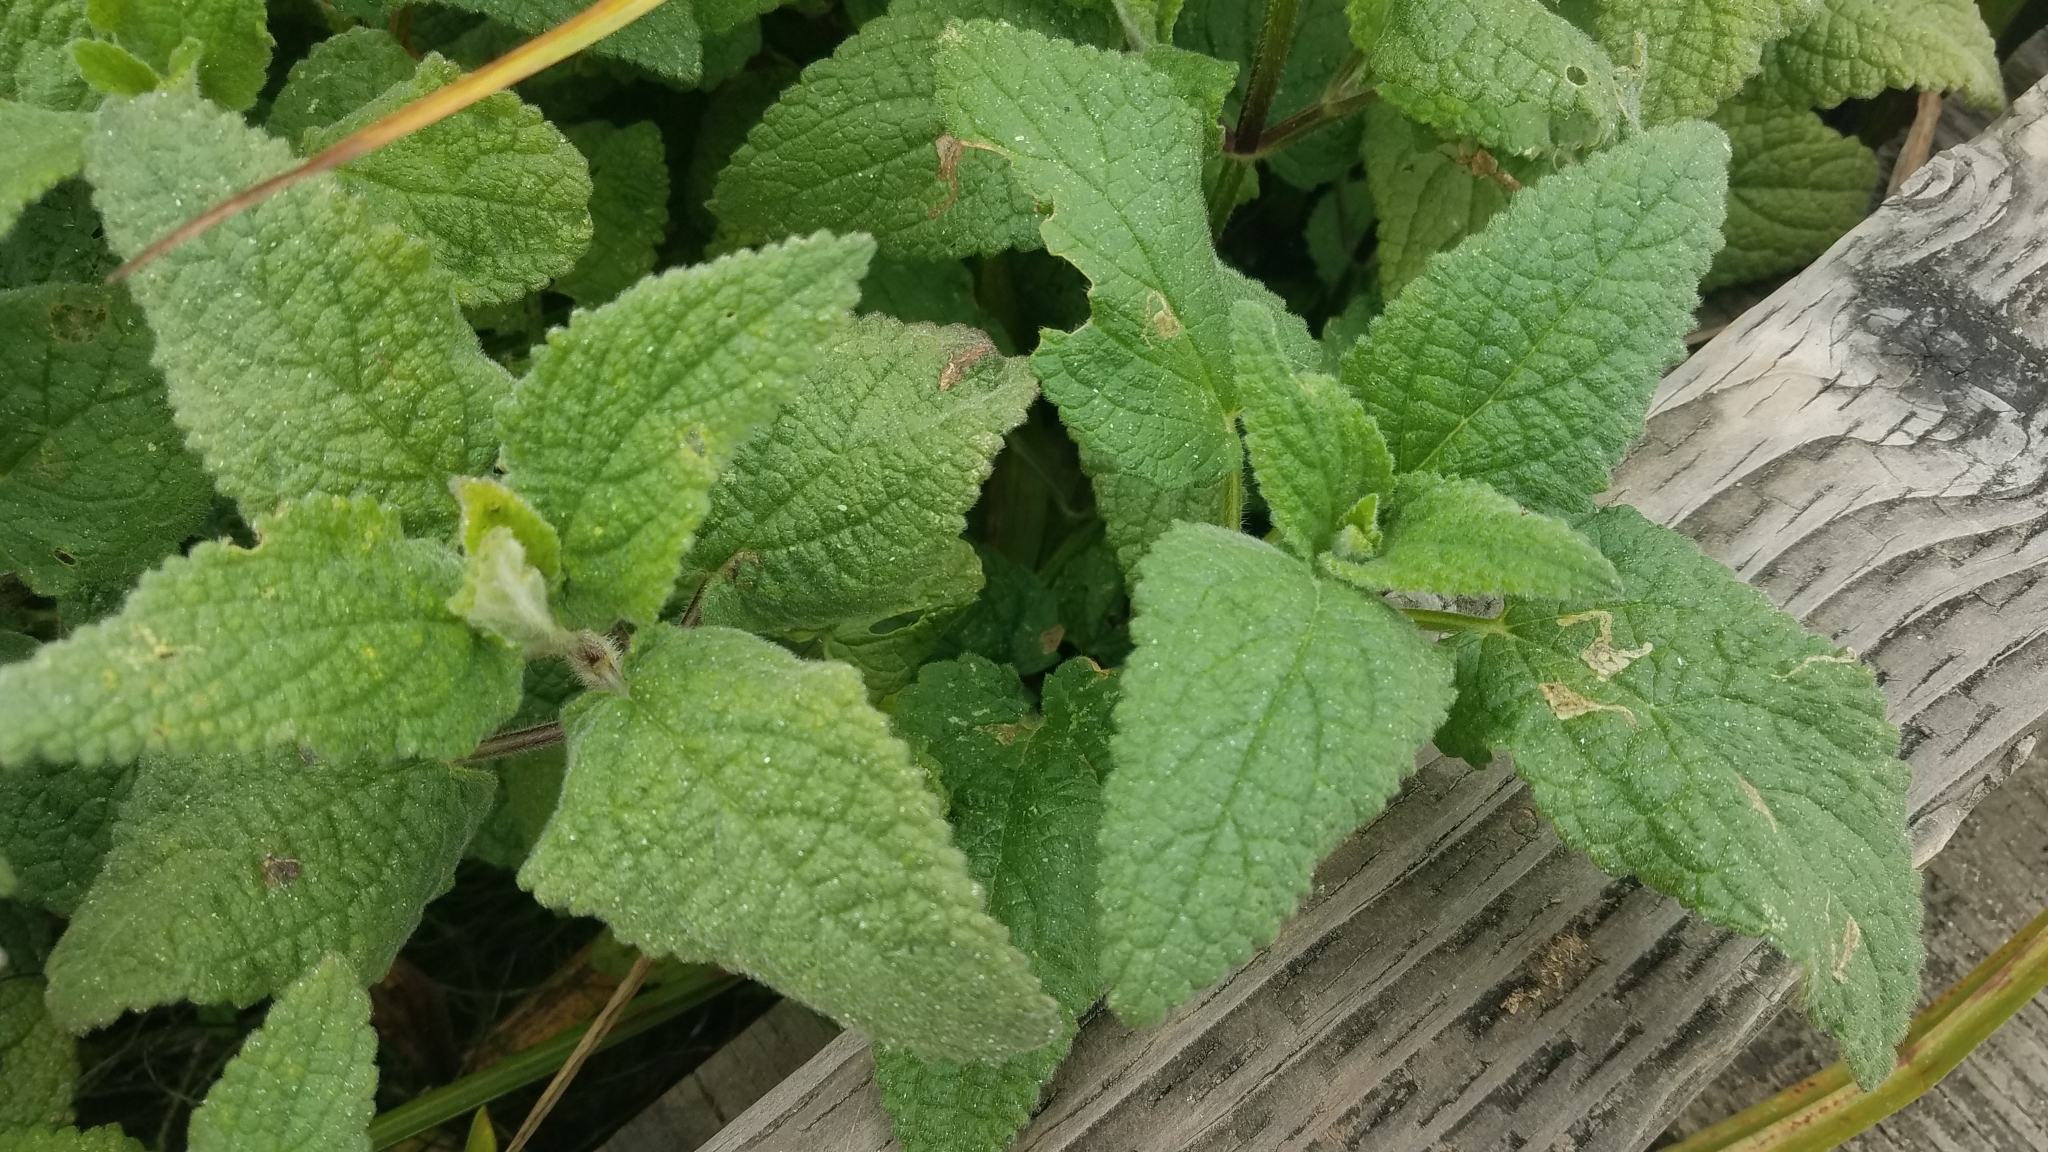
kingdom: Plantae
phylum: Tracheophyta
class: Magnoliopsida
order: Lamiales
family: Lamiaceae
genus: Stachys
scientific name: Stachys chamissonis
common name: Coastal hedge-nettle
